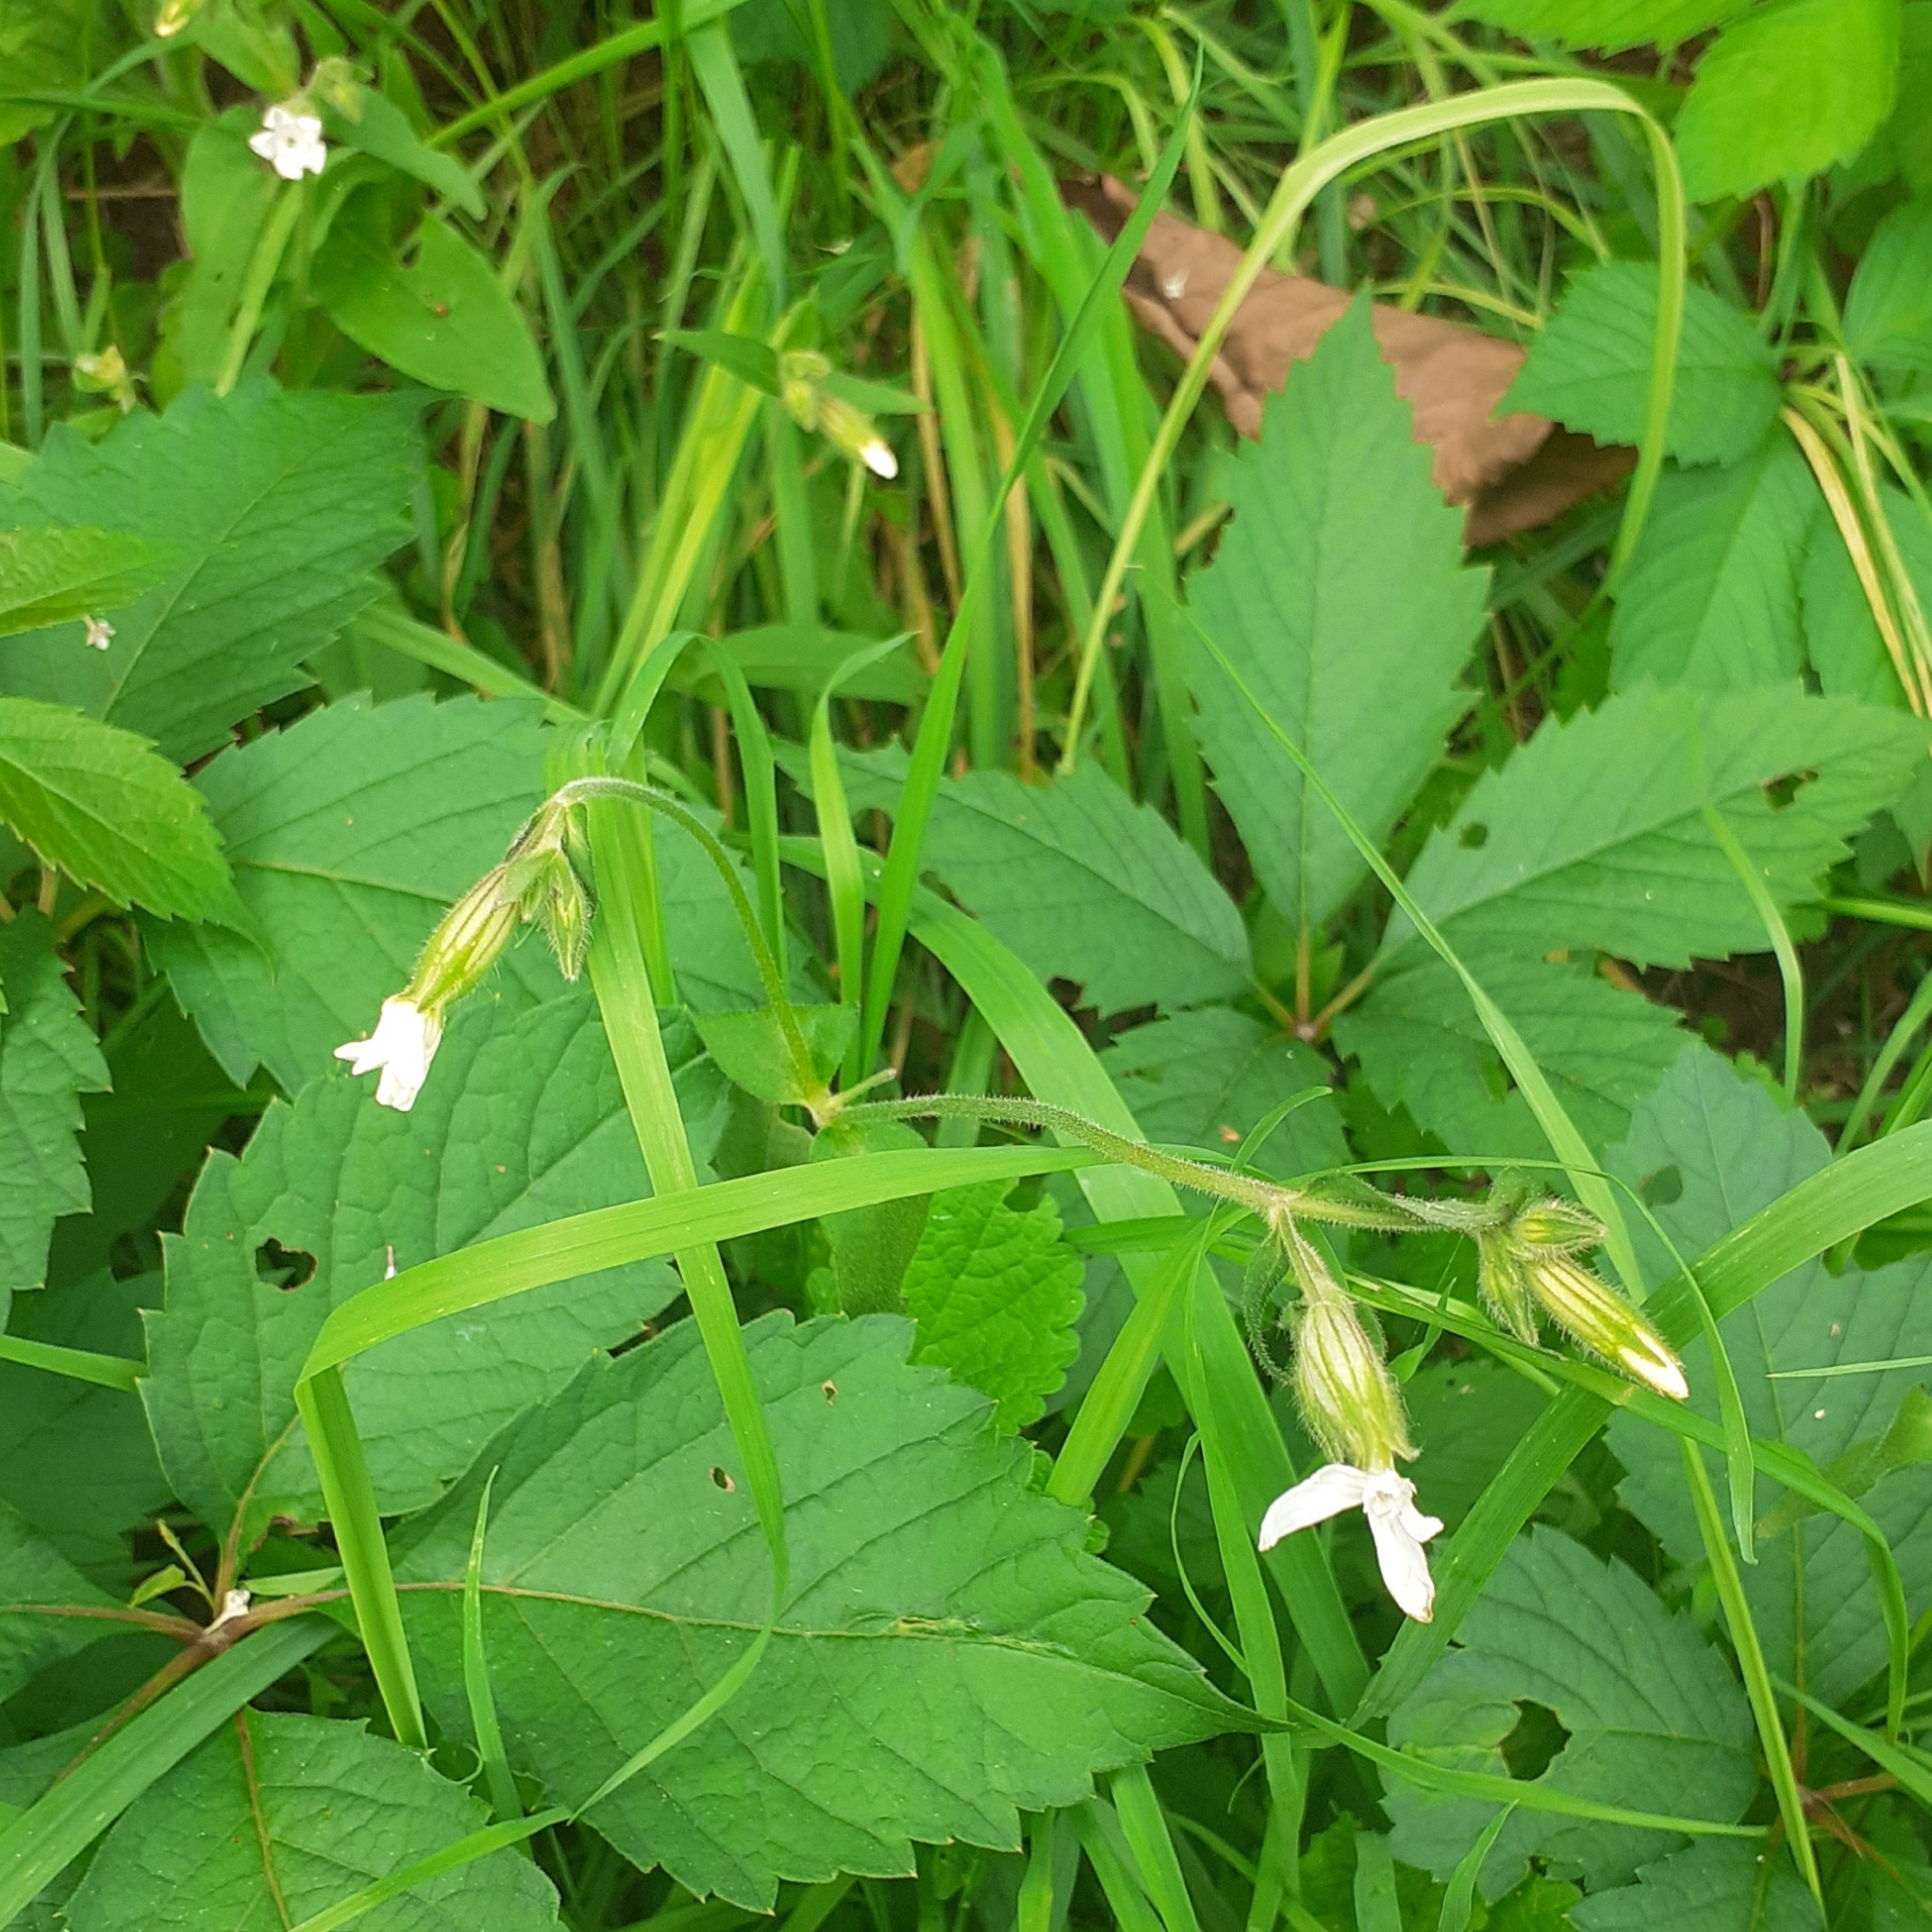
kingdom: Plantae
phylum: Tracheophyta
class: Magnoliopsida
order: Caryophyllales
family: Caryophyllaceae
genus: Silene
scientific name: Silene latifolia
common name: White campion
